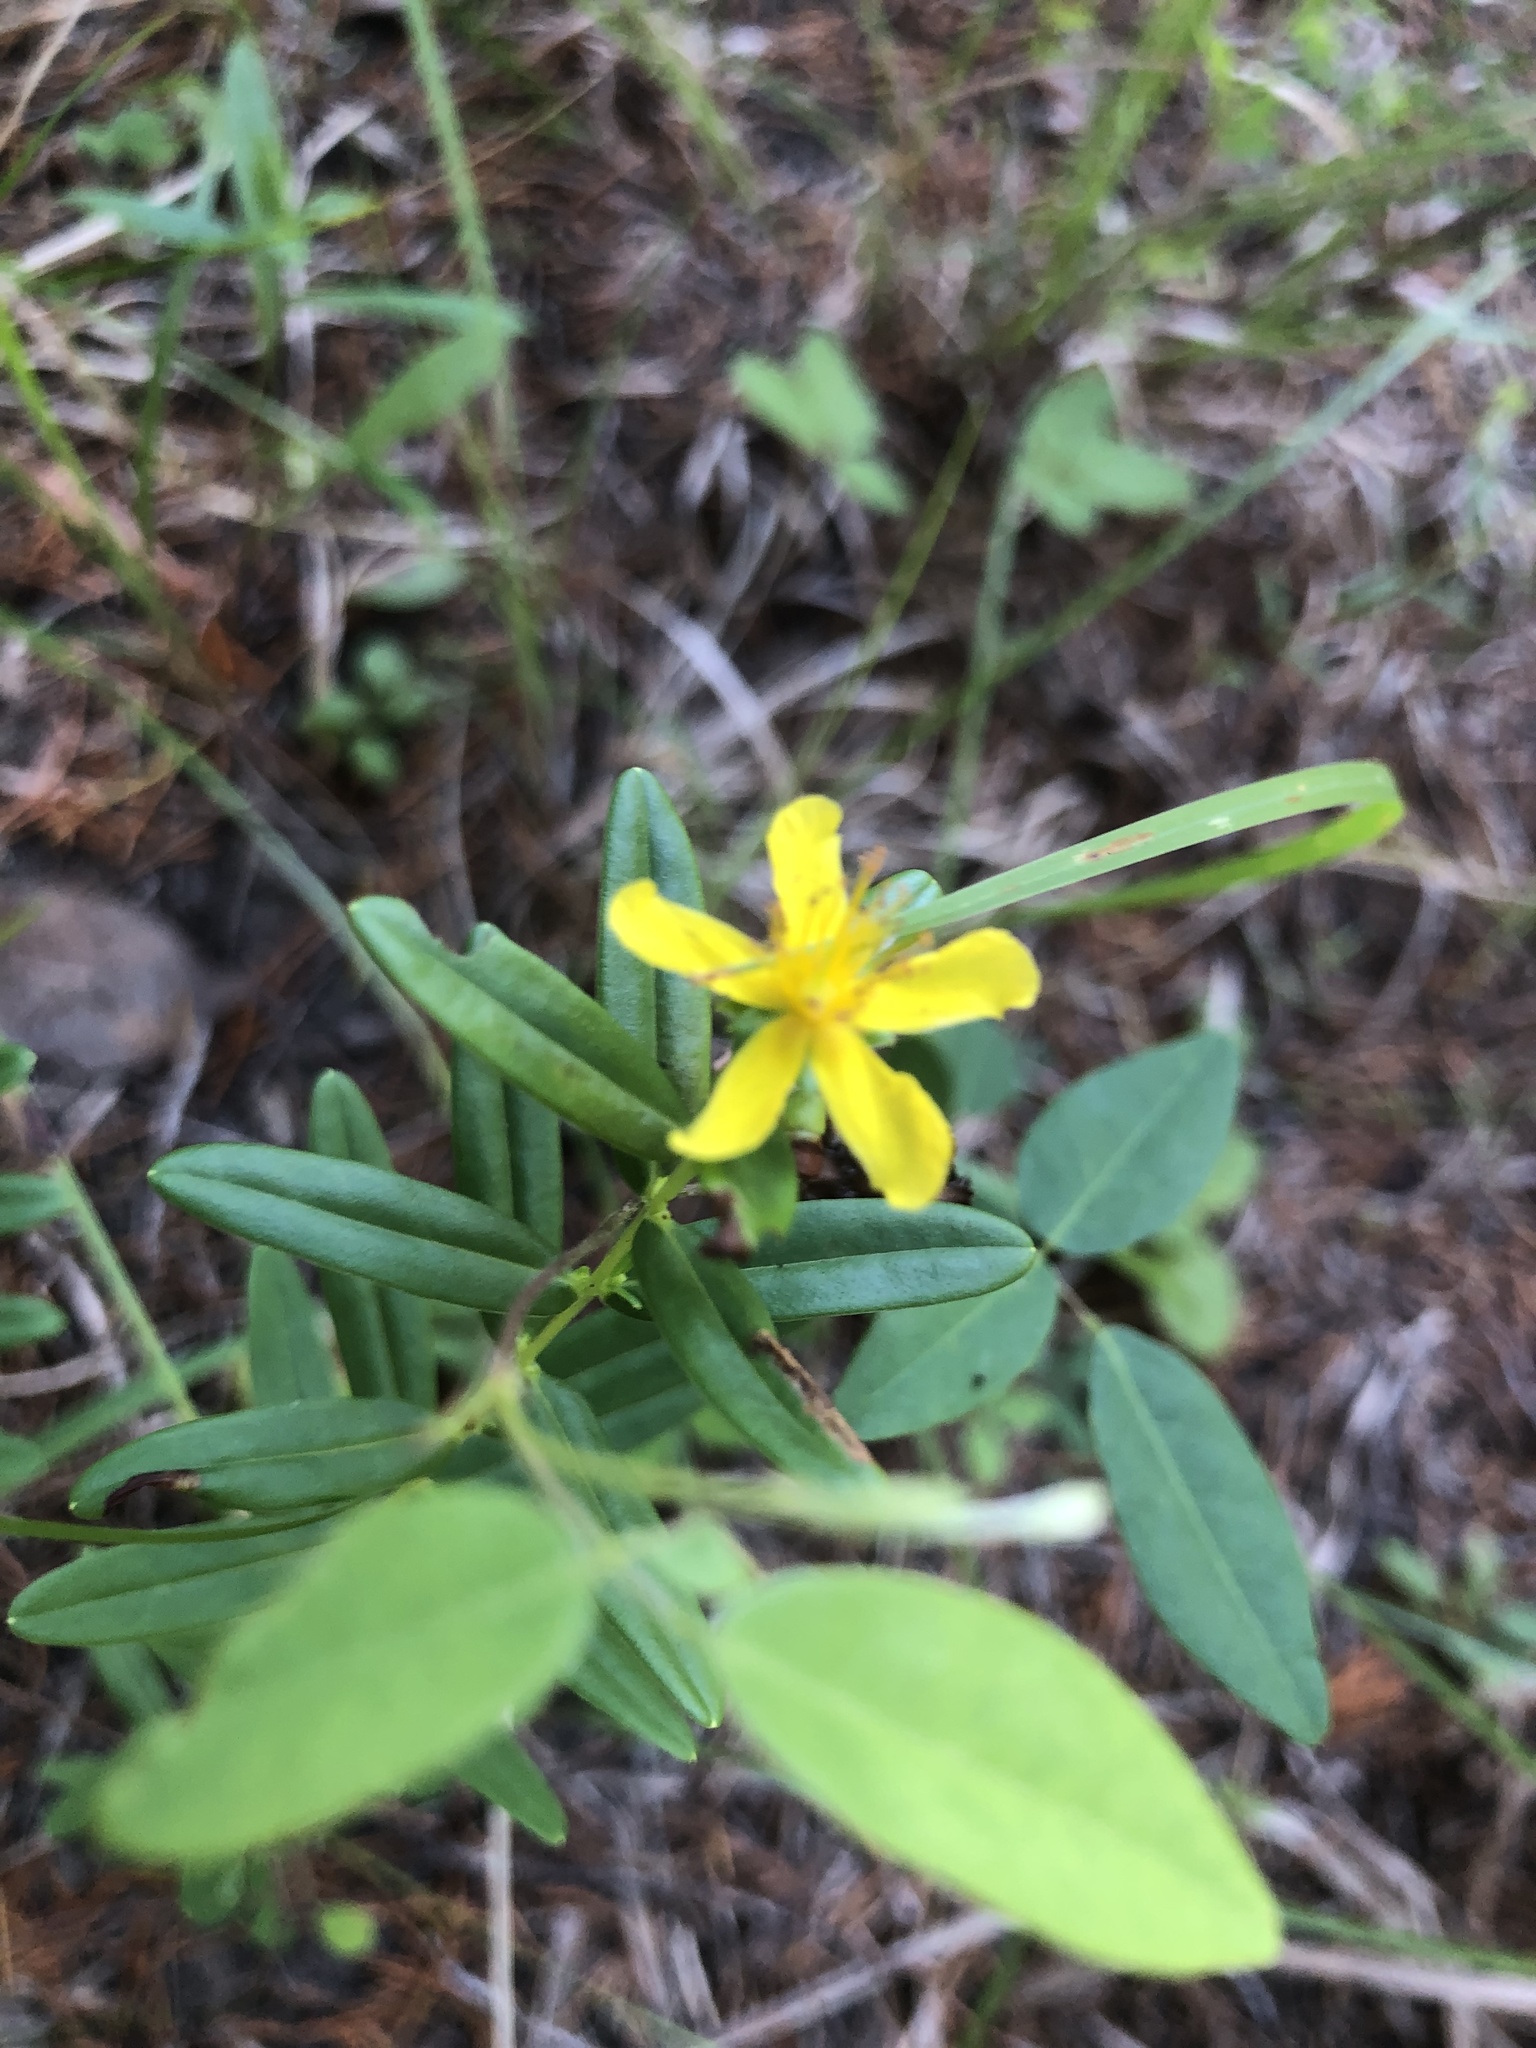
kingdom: Plantae
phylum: Tracheophyta
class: Magnoliopsida
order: Malpighiales
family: Hypericaceae
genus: Hypericum
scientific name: Hypericum sphaerocarpum
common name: Round-fruited st. john's-wort
